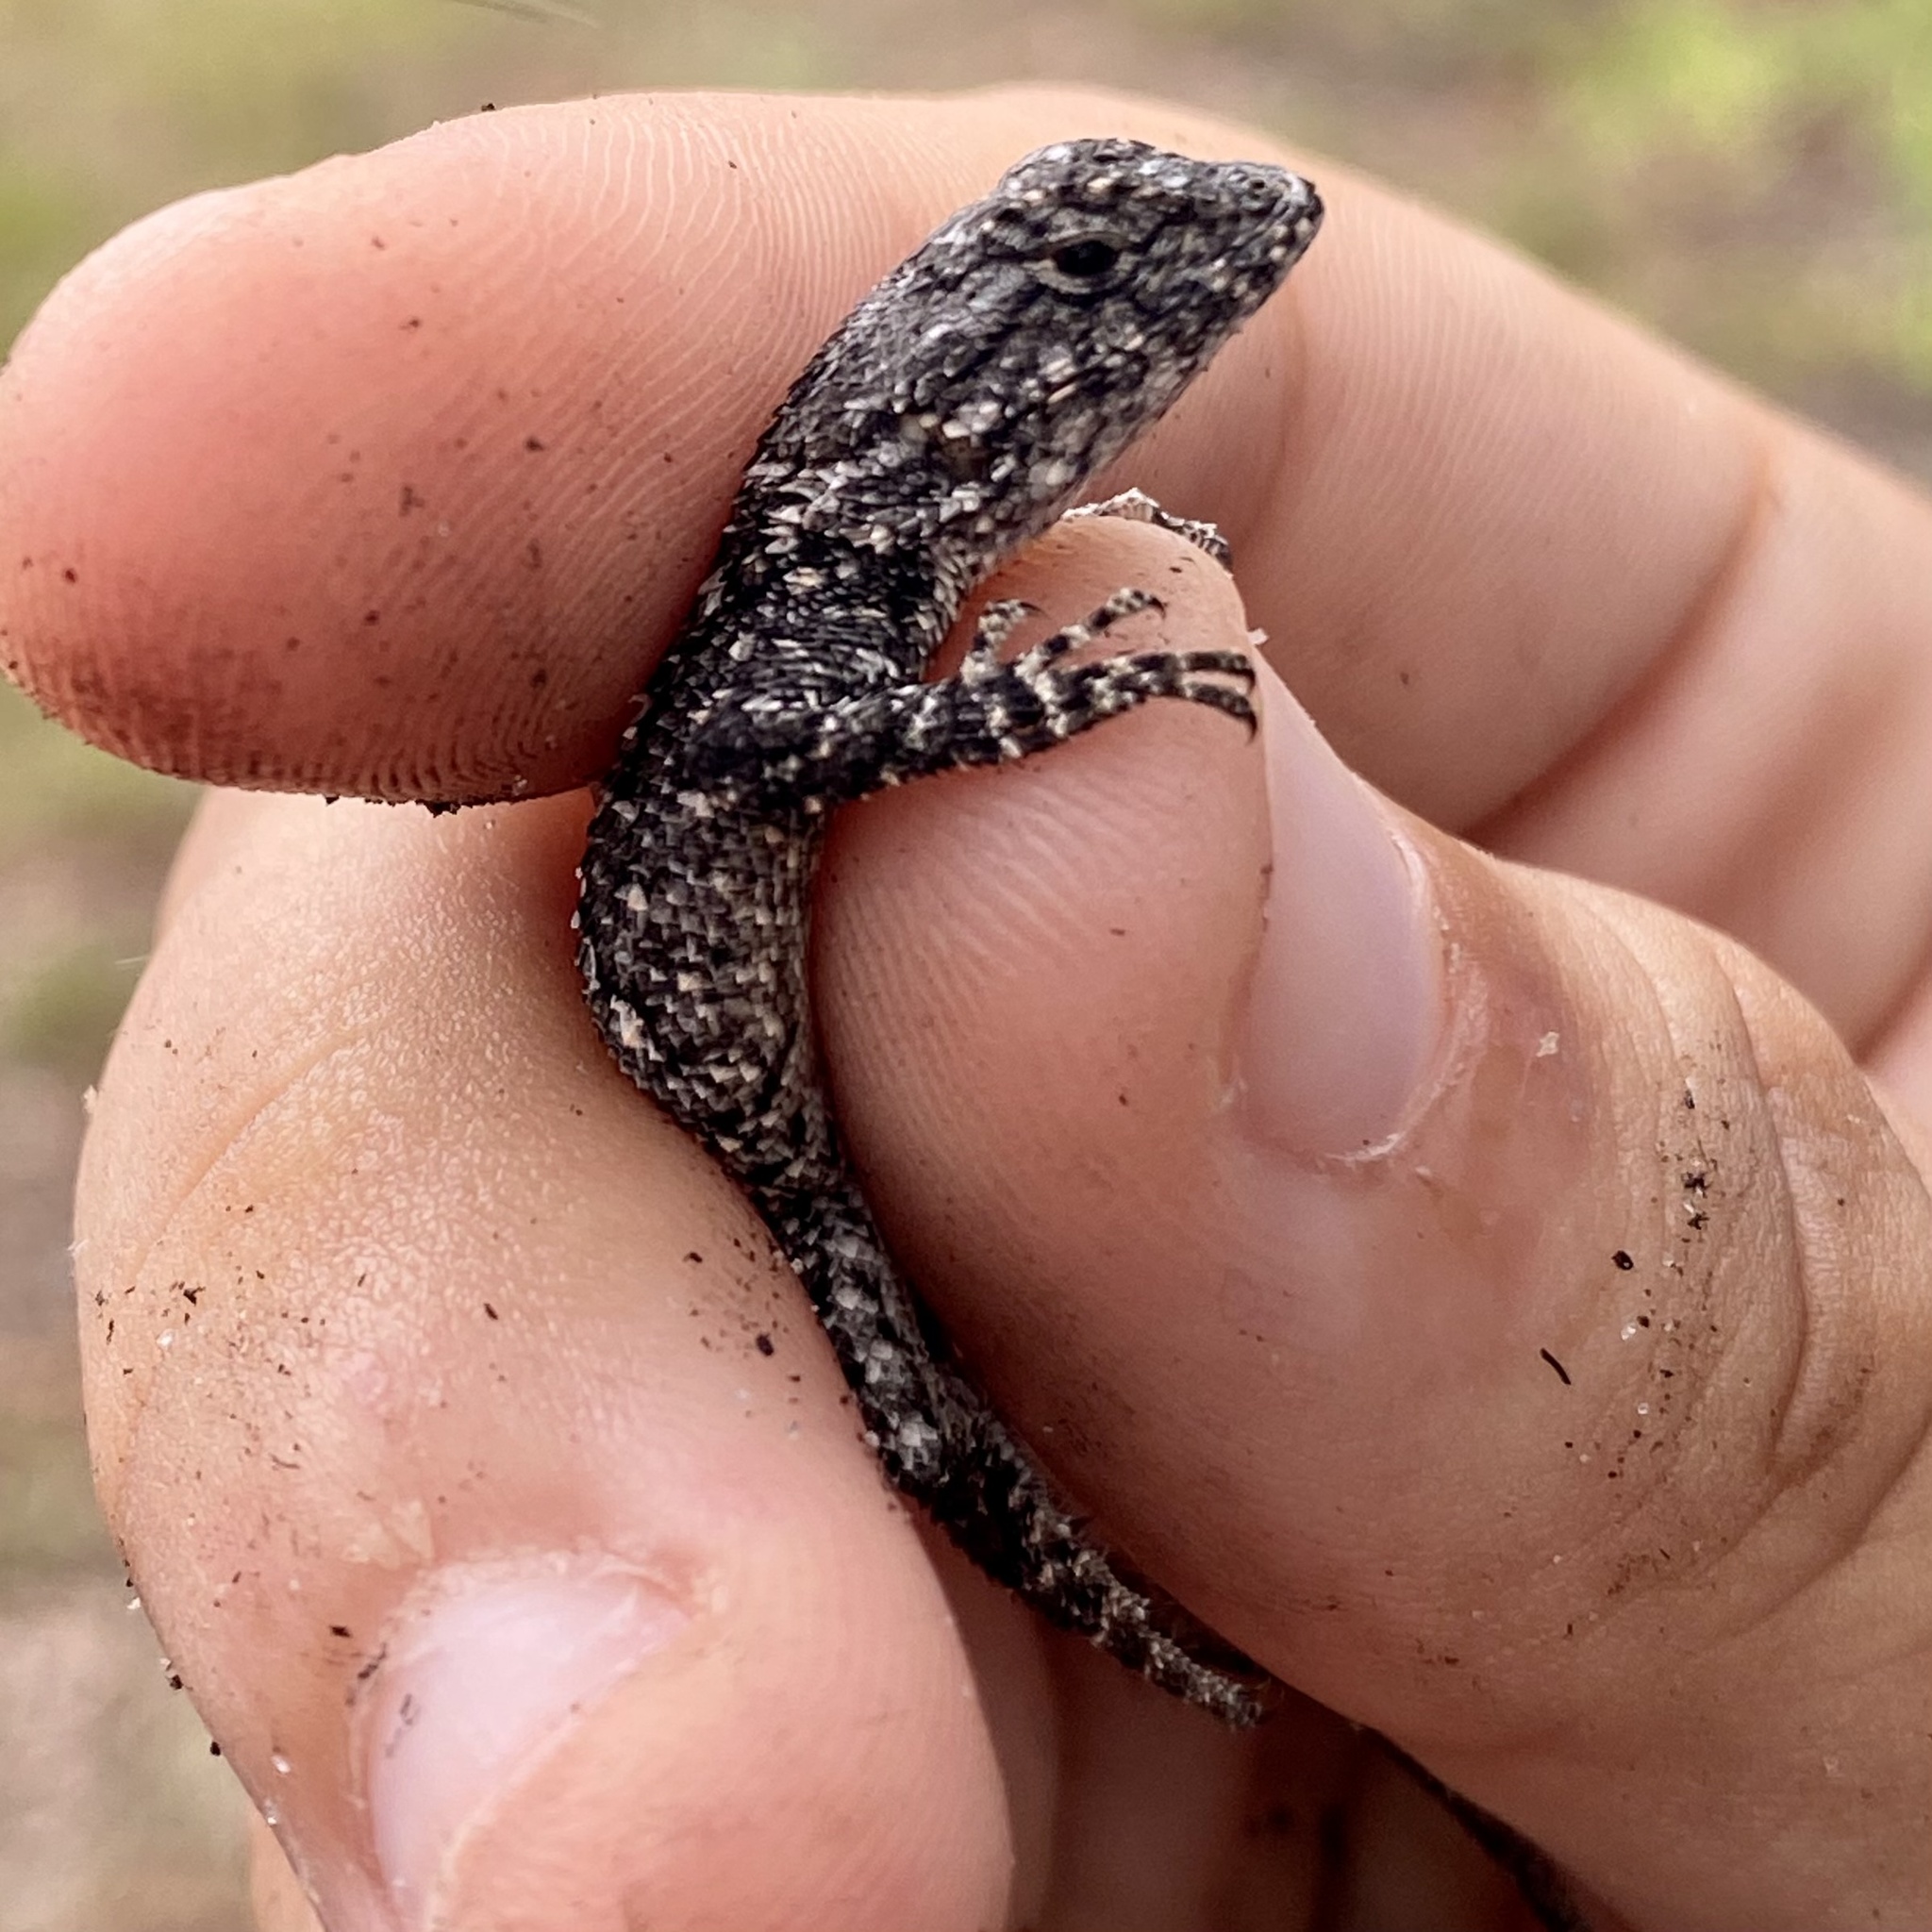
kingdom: Animalia
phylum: Chordata
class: Squamata
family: Phrynosomatidae
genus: Sceloporus
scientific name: Sceloporus undulatus
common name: Eastern fence lizard
